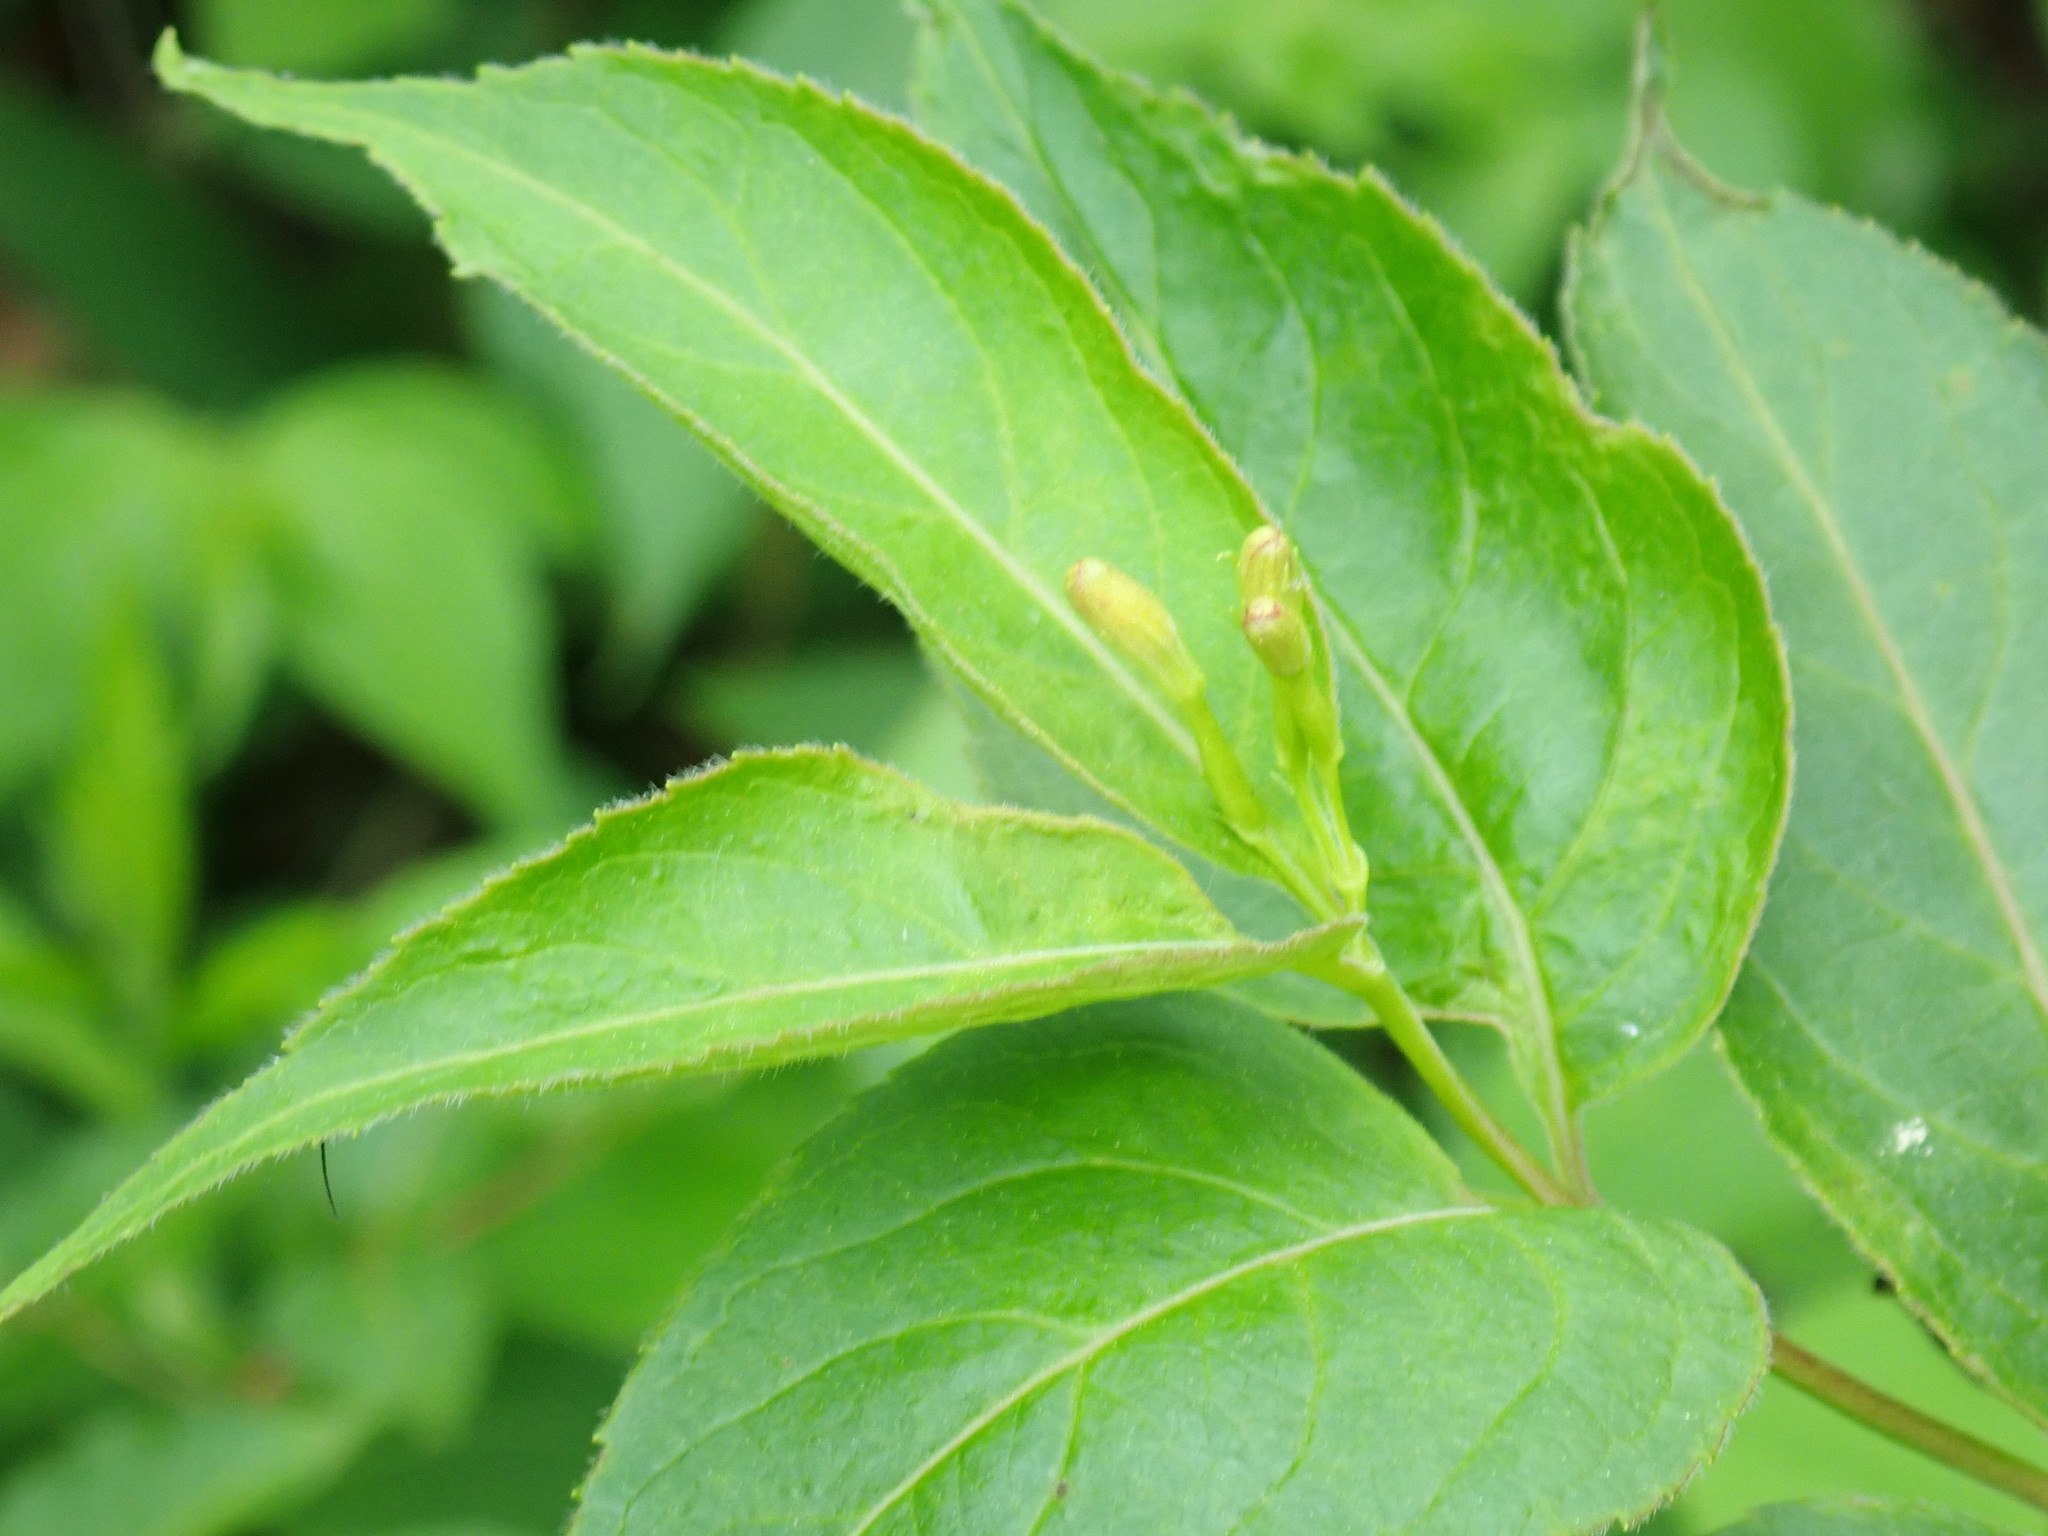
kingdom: Plantae
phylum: Tracheophyta
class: Magnoliopsida
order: Dipsacales
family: Caprifoliaceae
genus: Diervilla
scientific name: Diervilla lonicera
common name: Bush-honeysuckle
